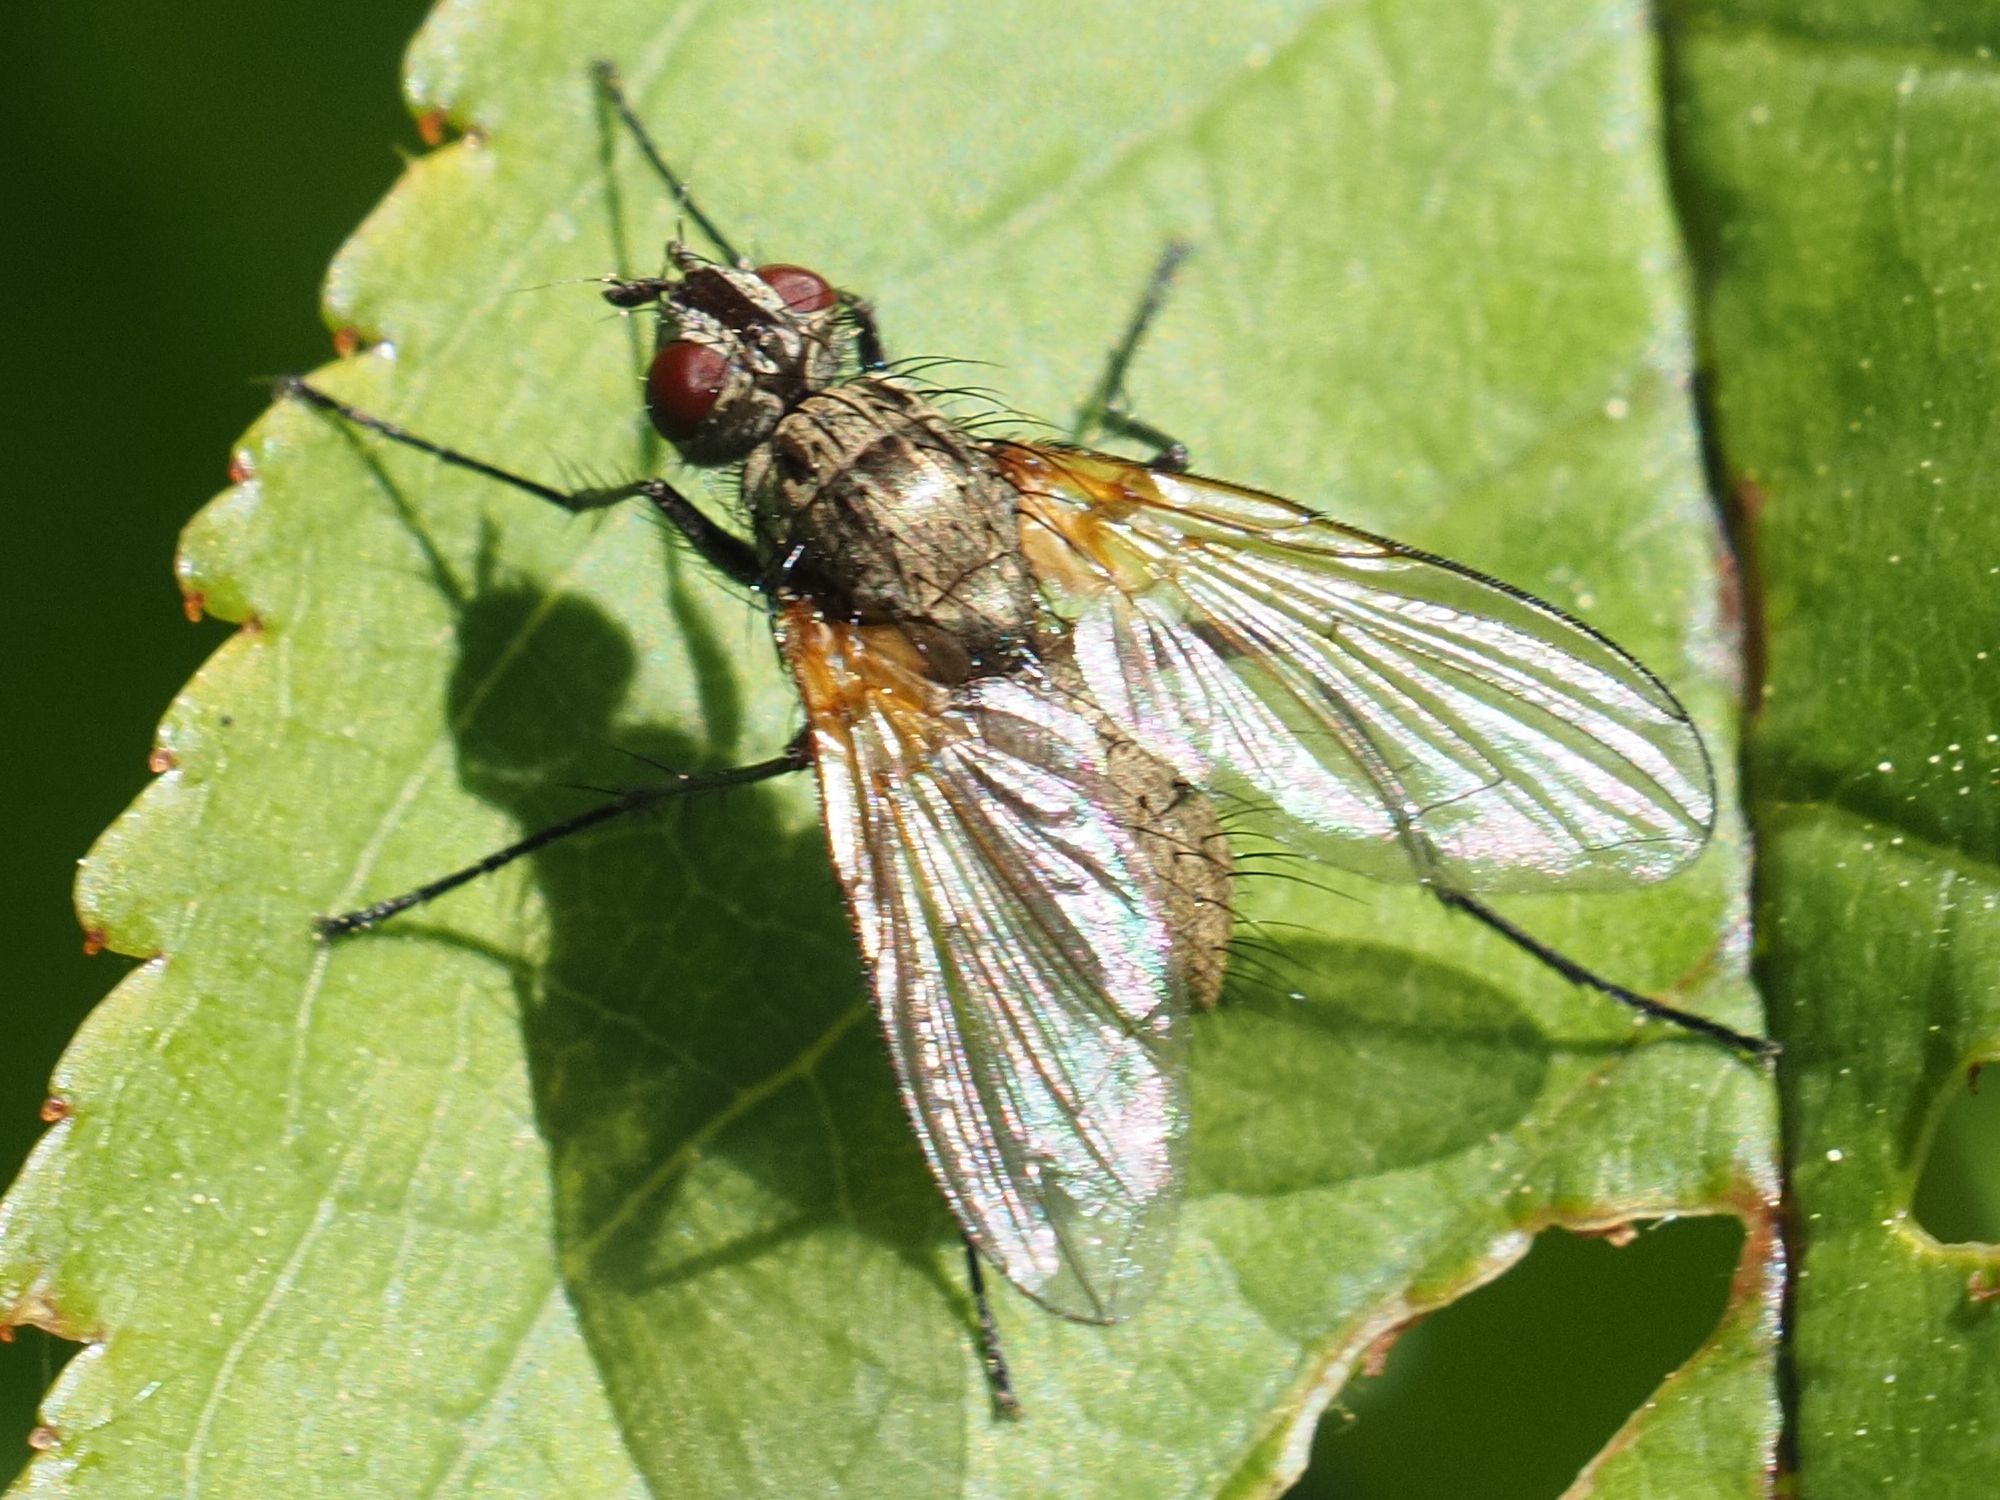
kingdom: Animalia
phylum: Arthropoda
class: Insecta
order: Diptera
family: Tachinidae
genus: Macquartia
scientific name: Macquartia grisea
